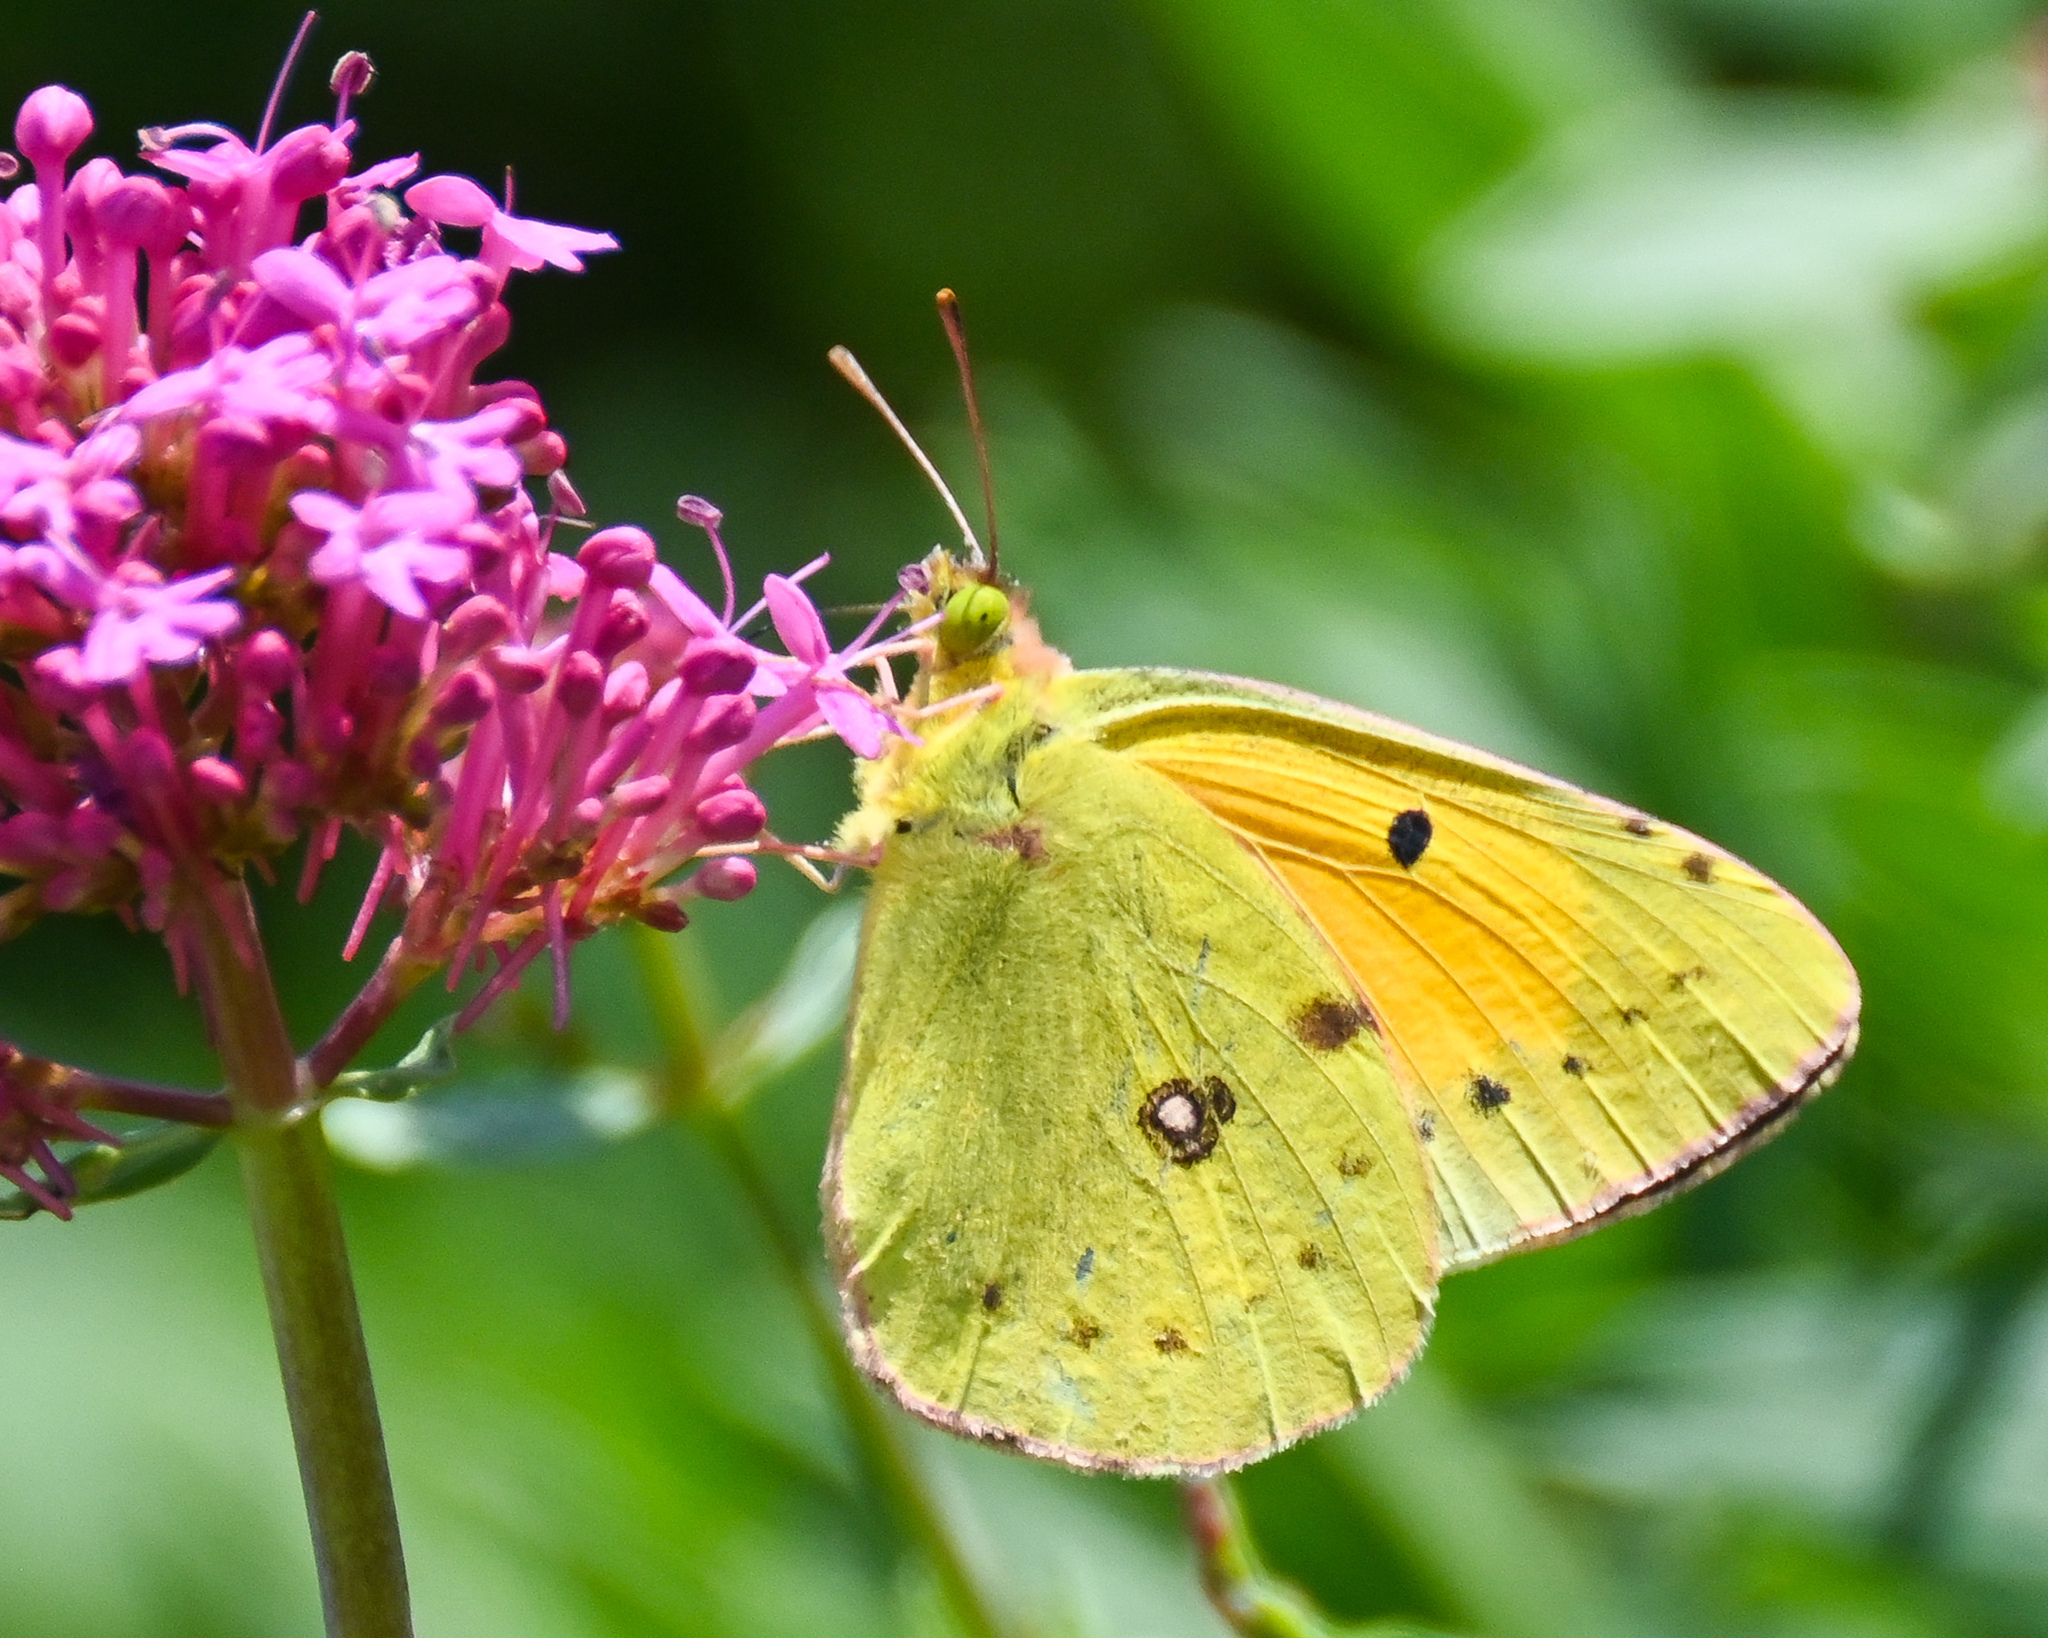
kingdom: Animalia
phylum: Arthropoda
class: Insecta
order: Lepidoptera
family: Pieridae
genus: Colias
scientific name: Colias croceus
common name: Clouded yellow
